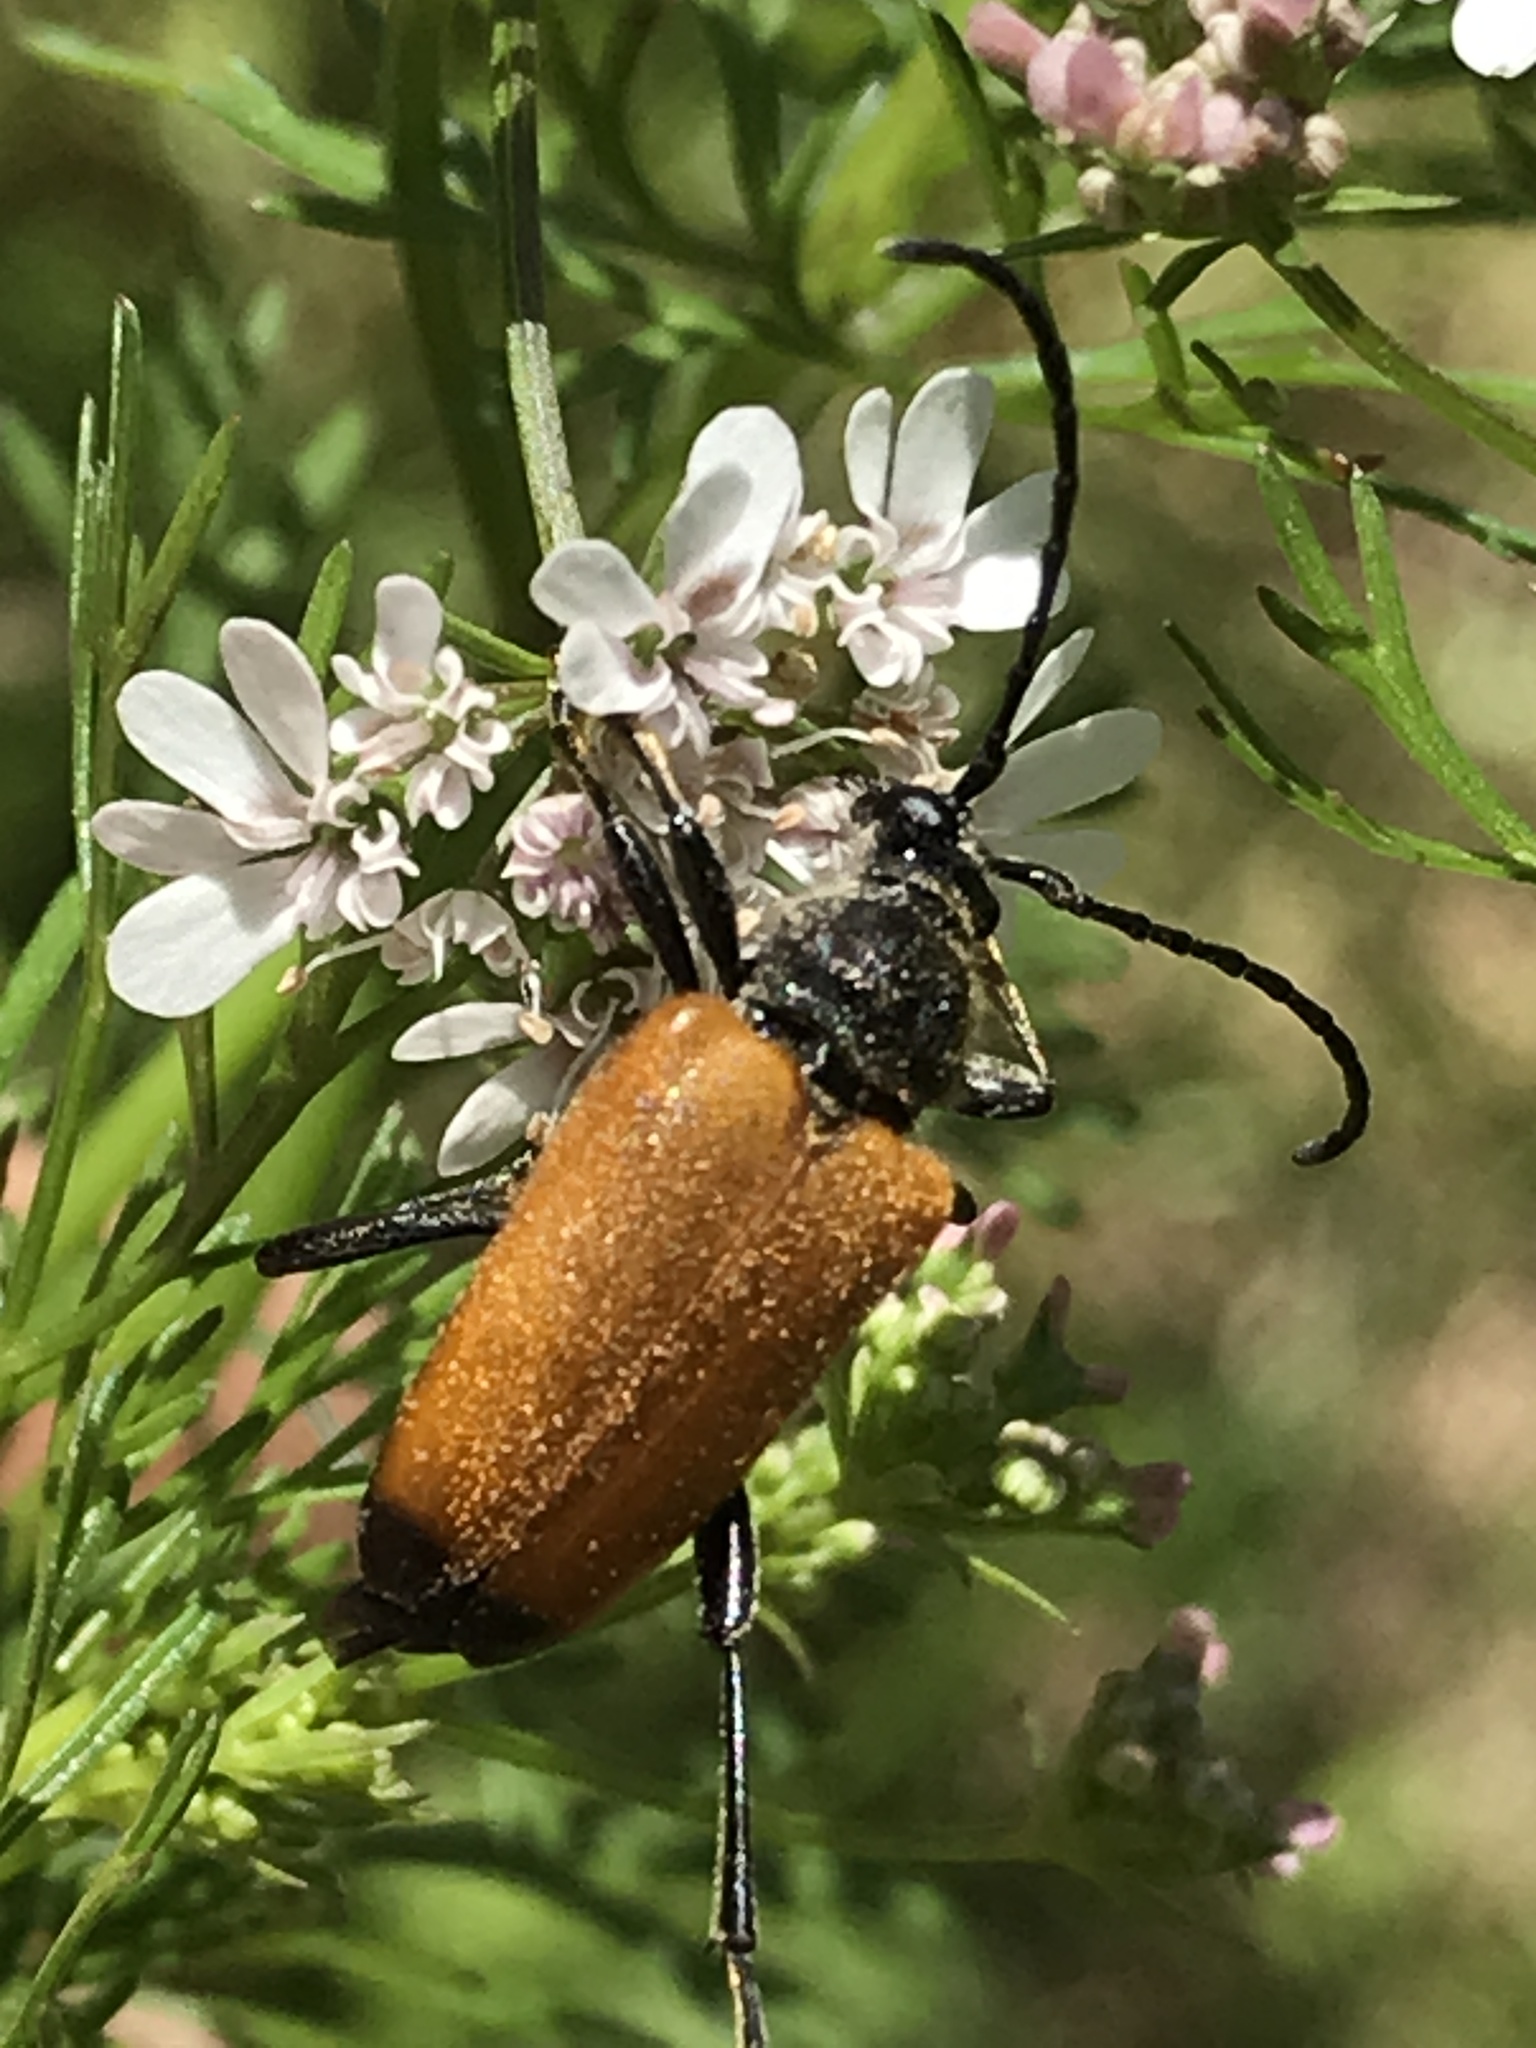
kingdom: Animalia
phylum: Arthropoda
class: Insecta
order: Coleoptera
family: Cerambycidae
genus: Trigonarthris
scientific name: Trigonarthris atrata
